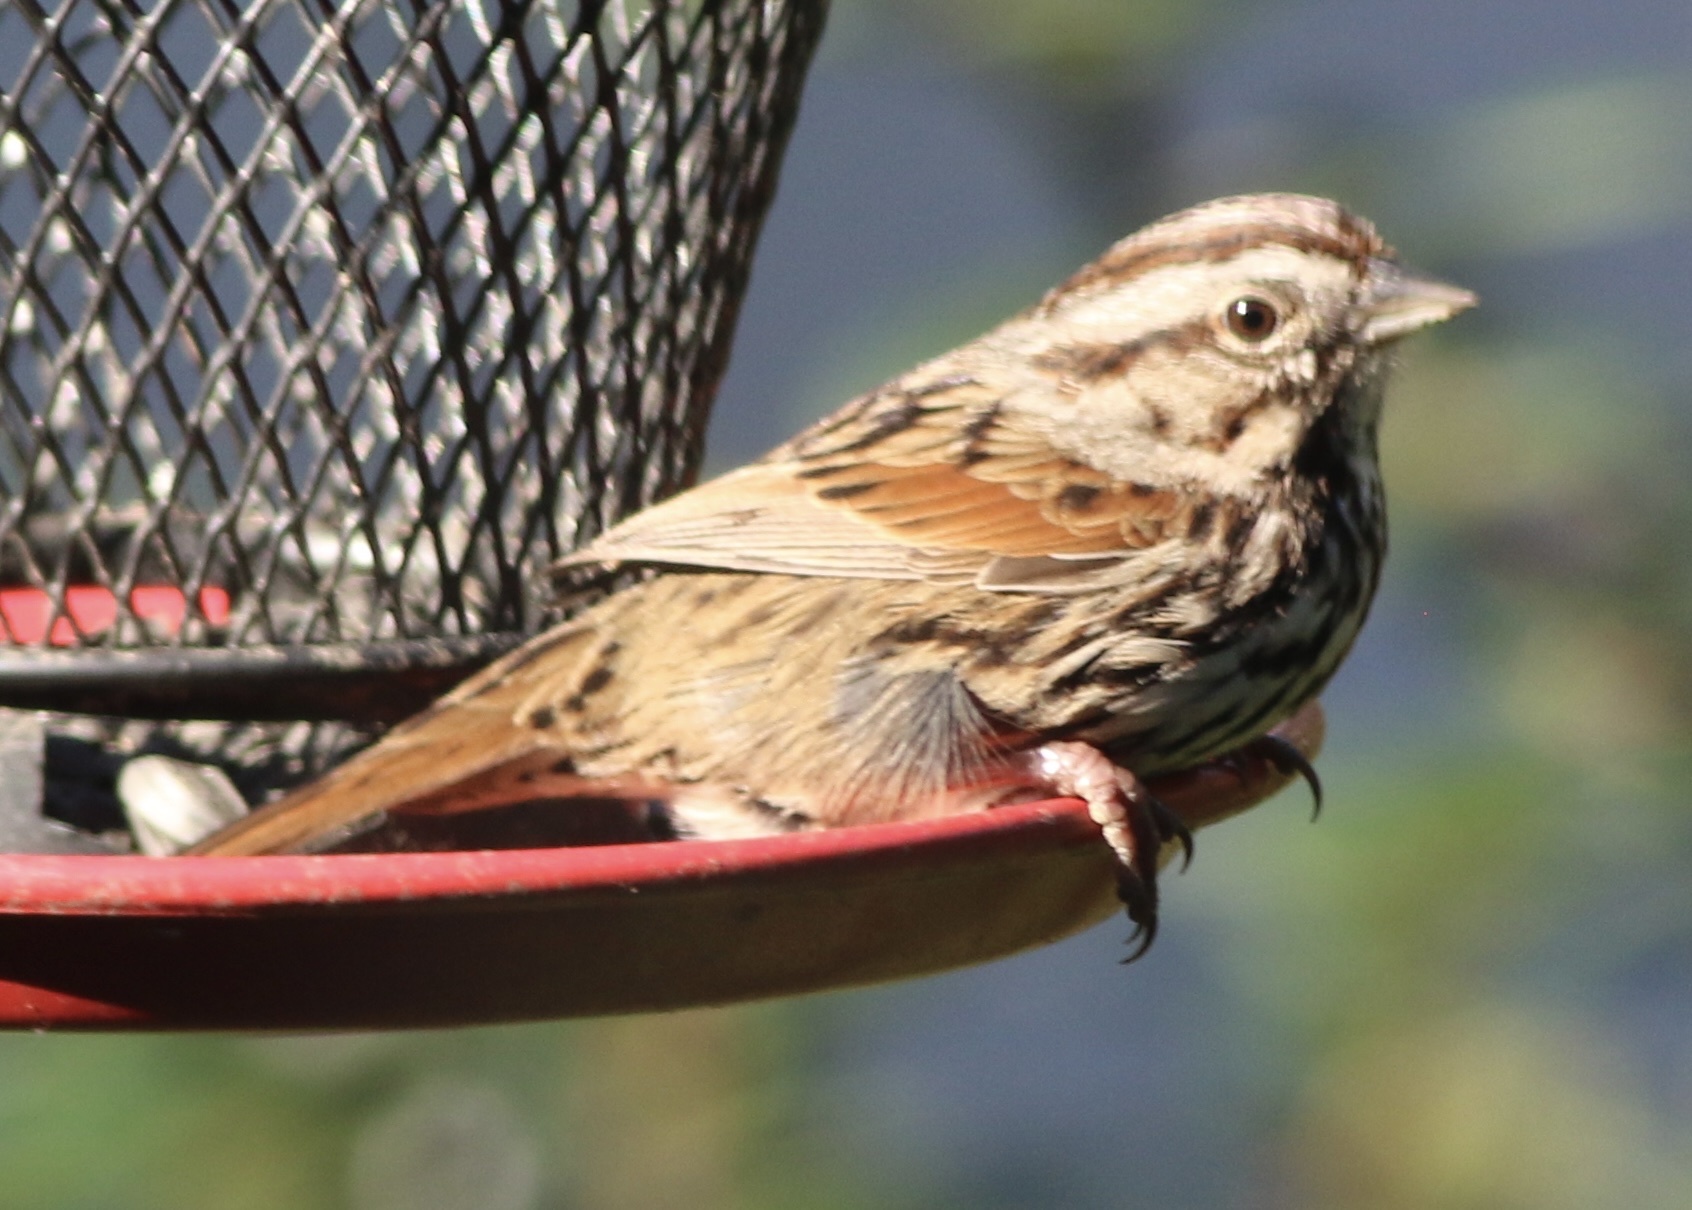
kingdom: Animalia
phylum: Chordata
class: Aves
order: Passeriformes
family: Passerellidae
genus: Melospiza
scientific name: Melospiza melodia
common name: Song sparrow
